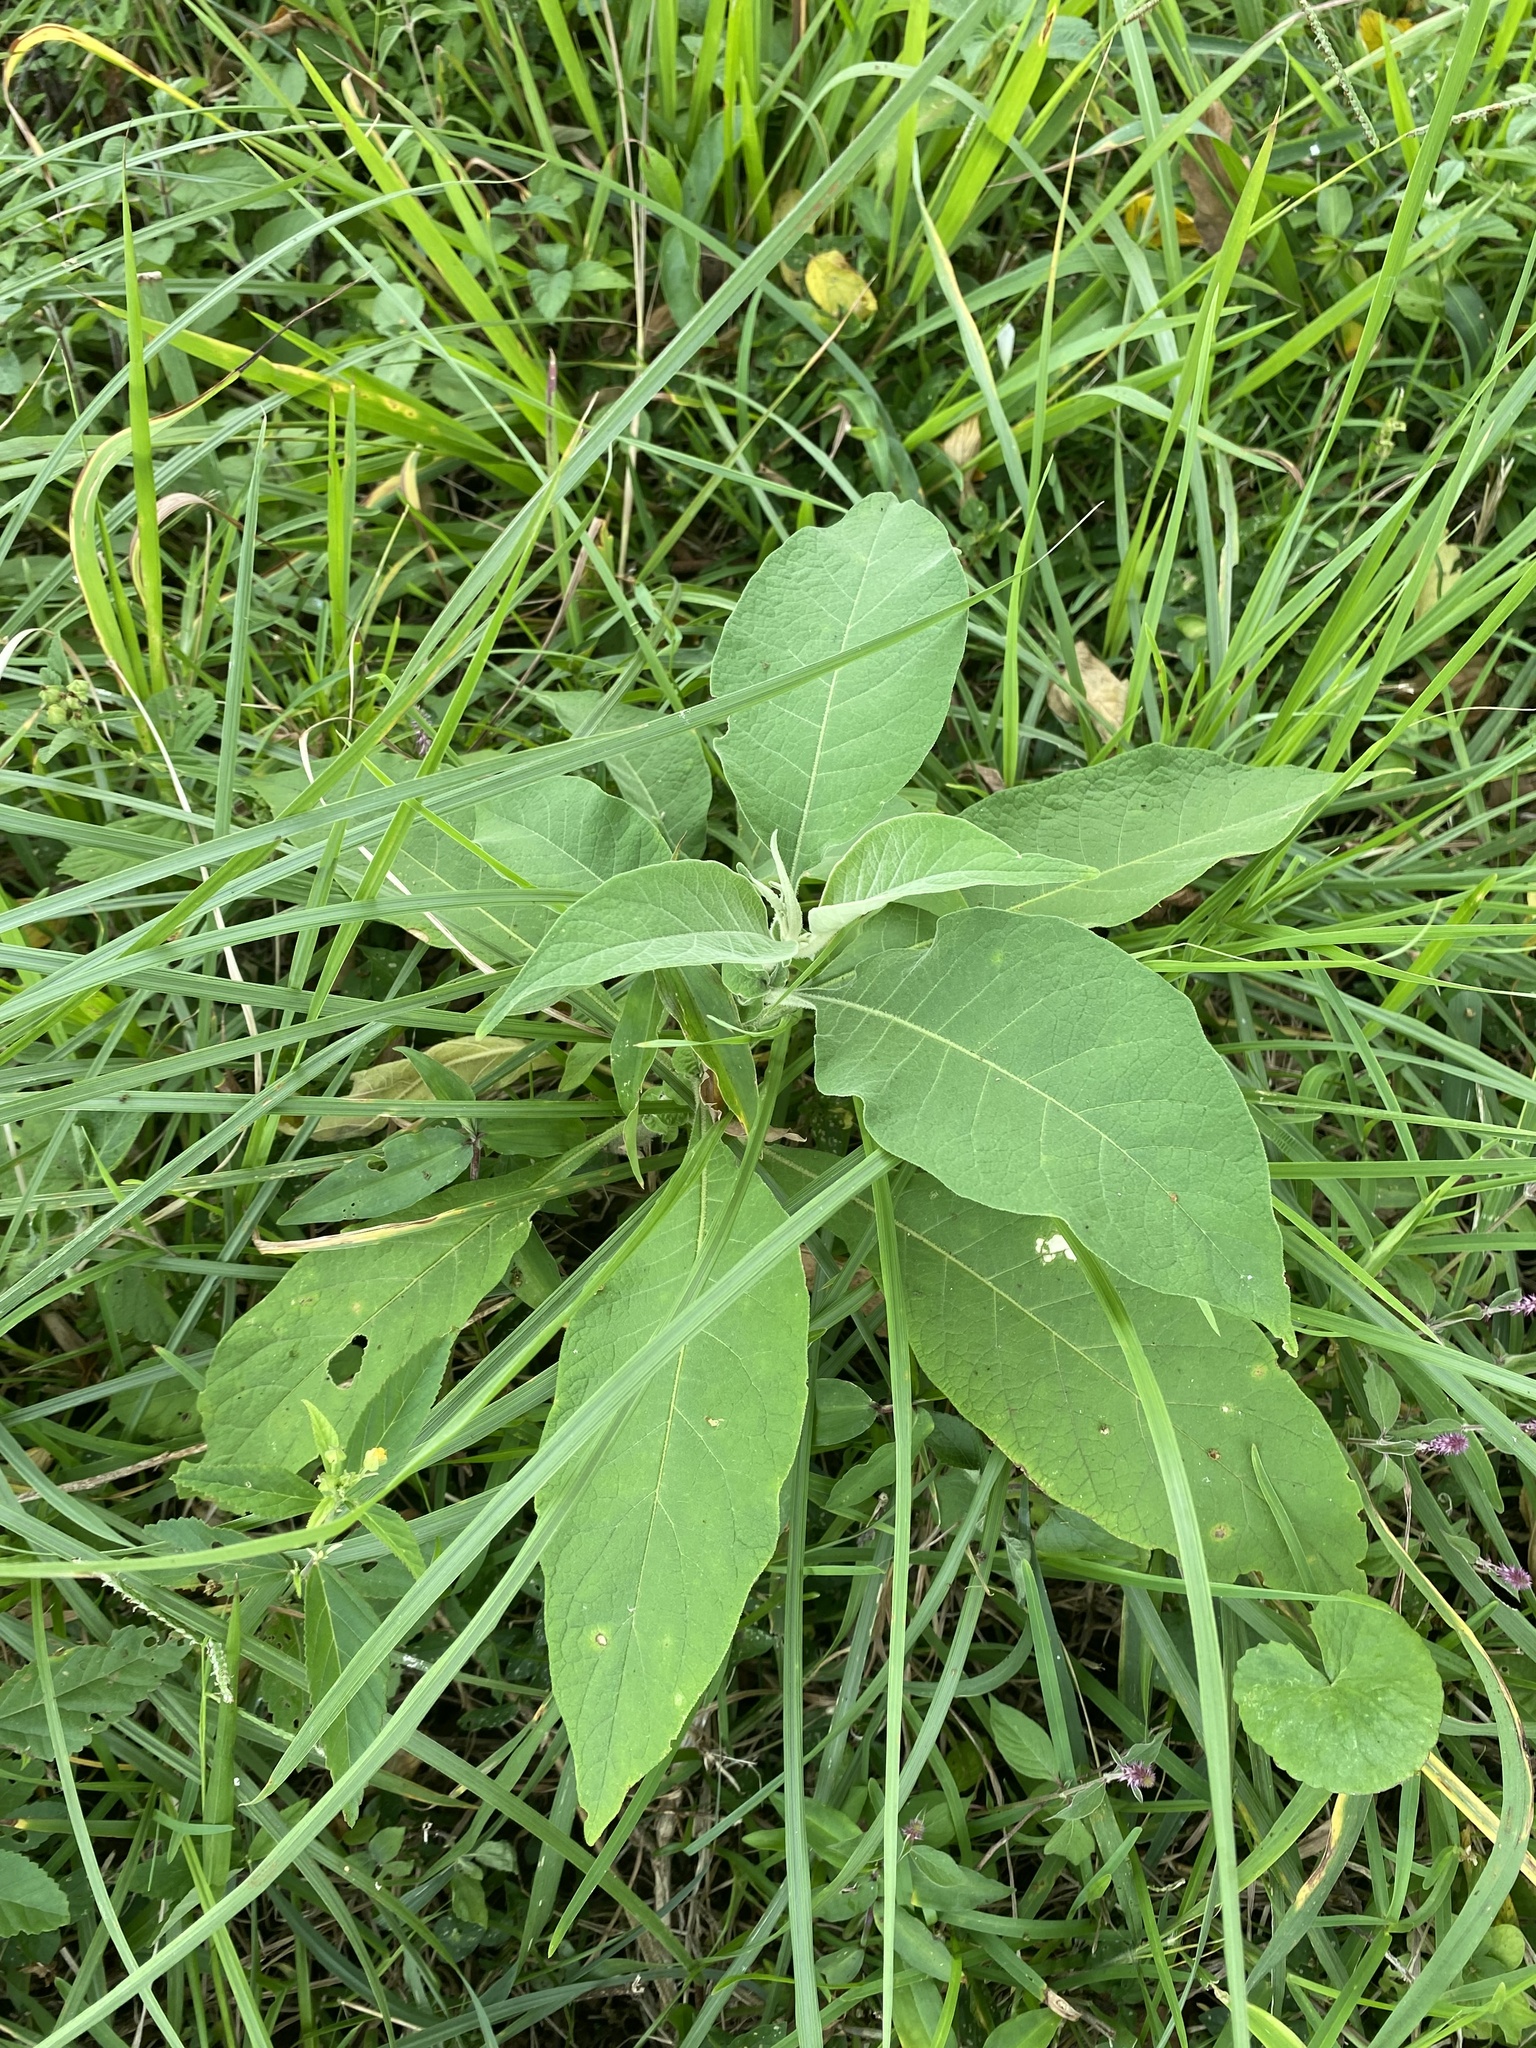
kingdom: Plantae
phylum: Tracheophyta
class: Magnoliopsida
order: Solanales
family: Solanaceae
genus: Solanum
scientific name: Solanum mauritianum
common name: Earleaf nightshade
